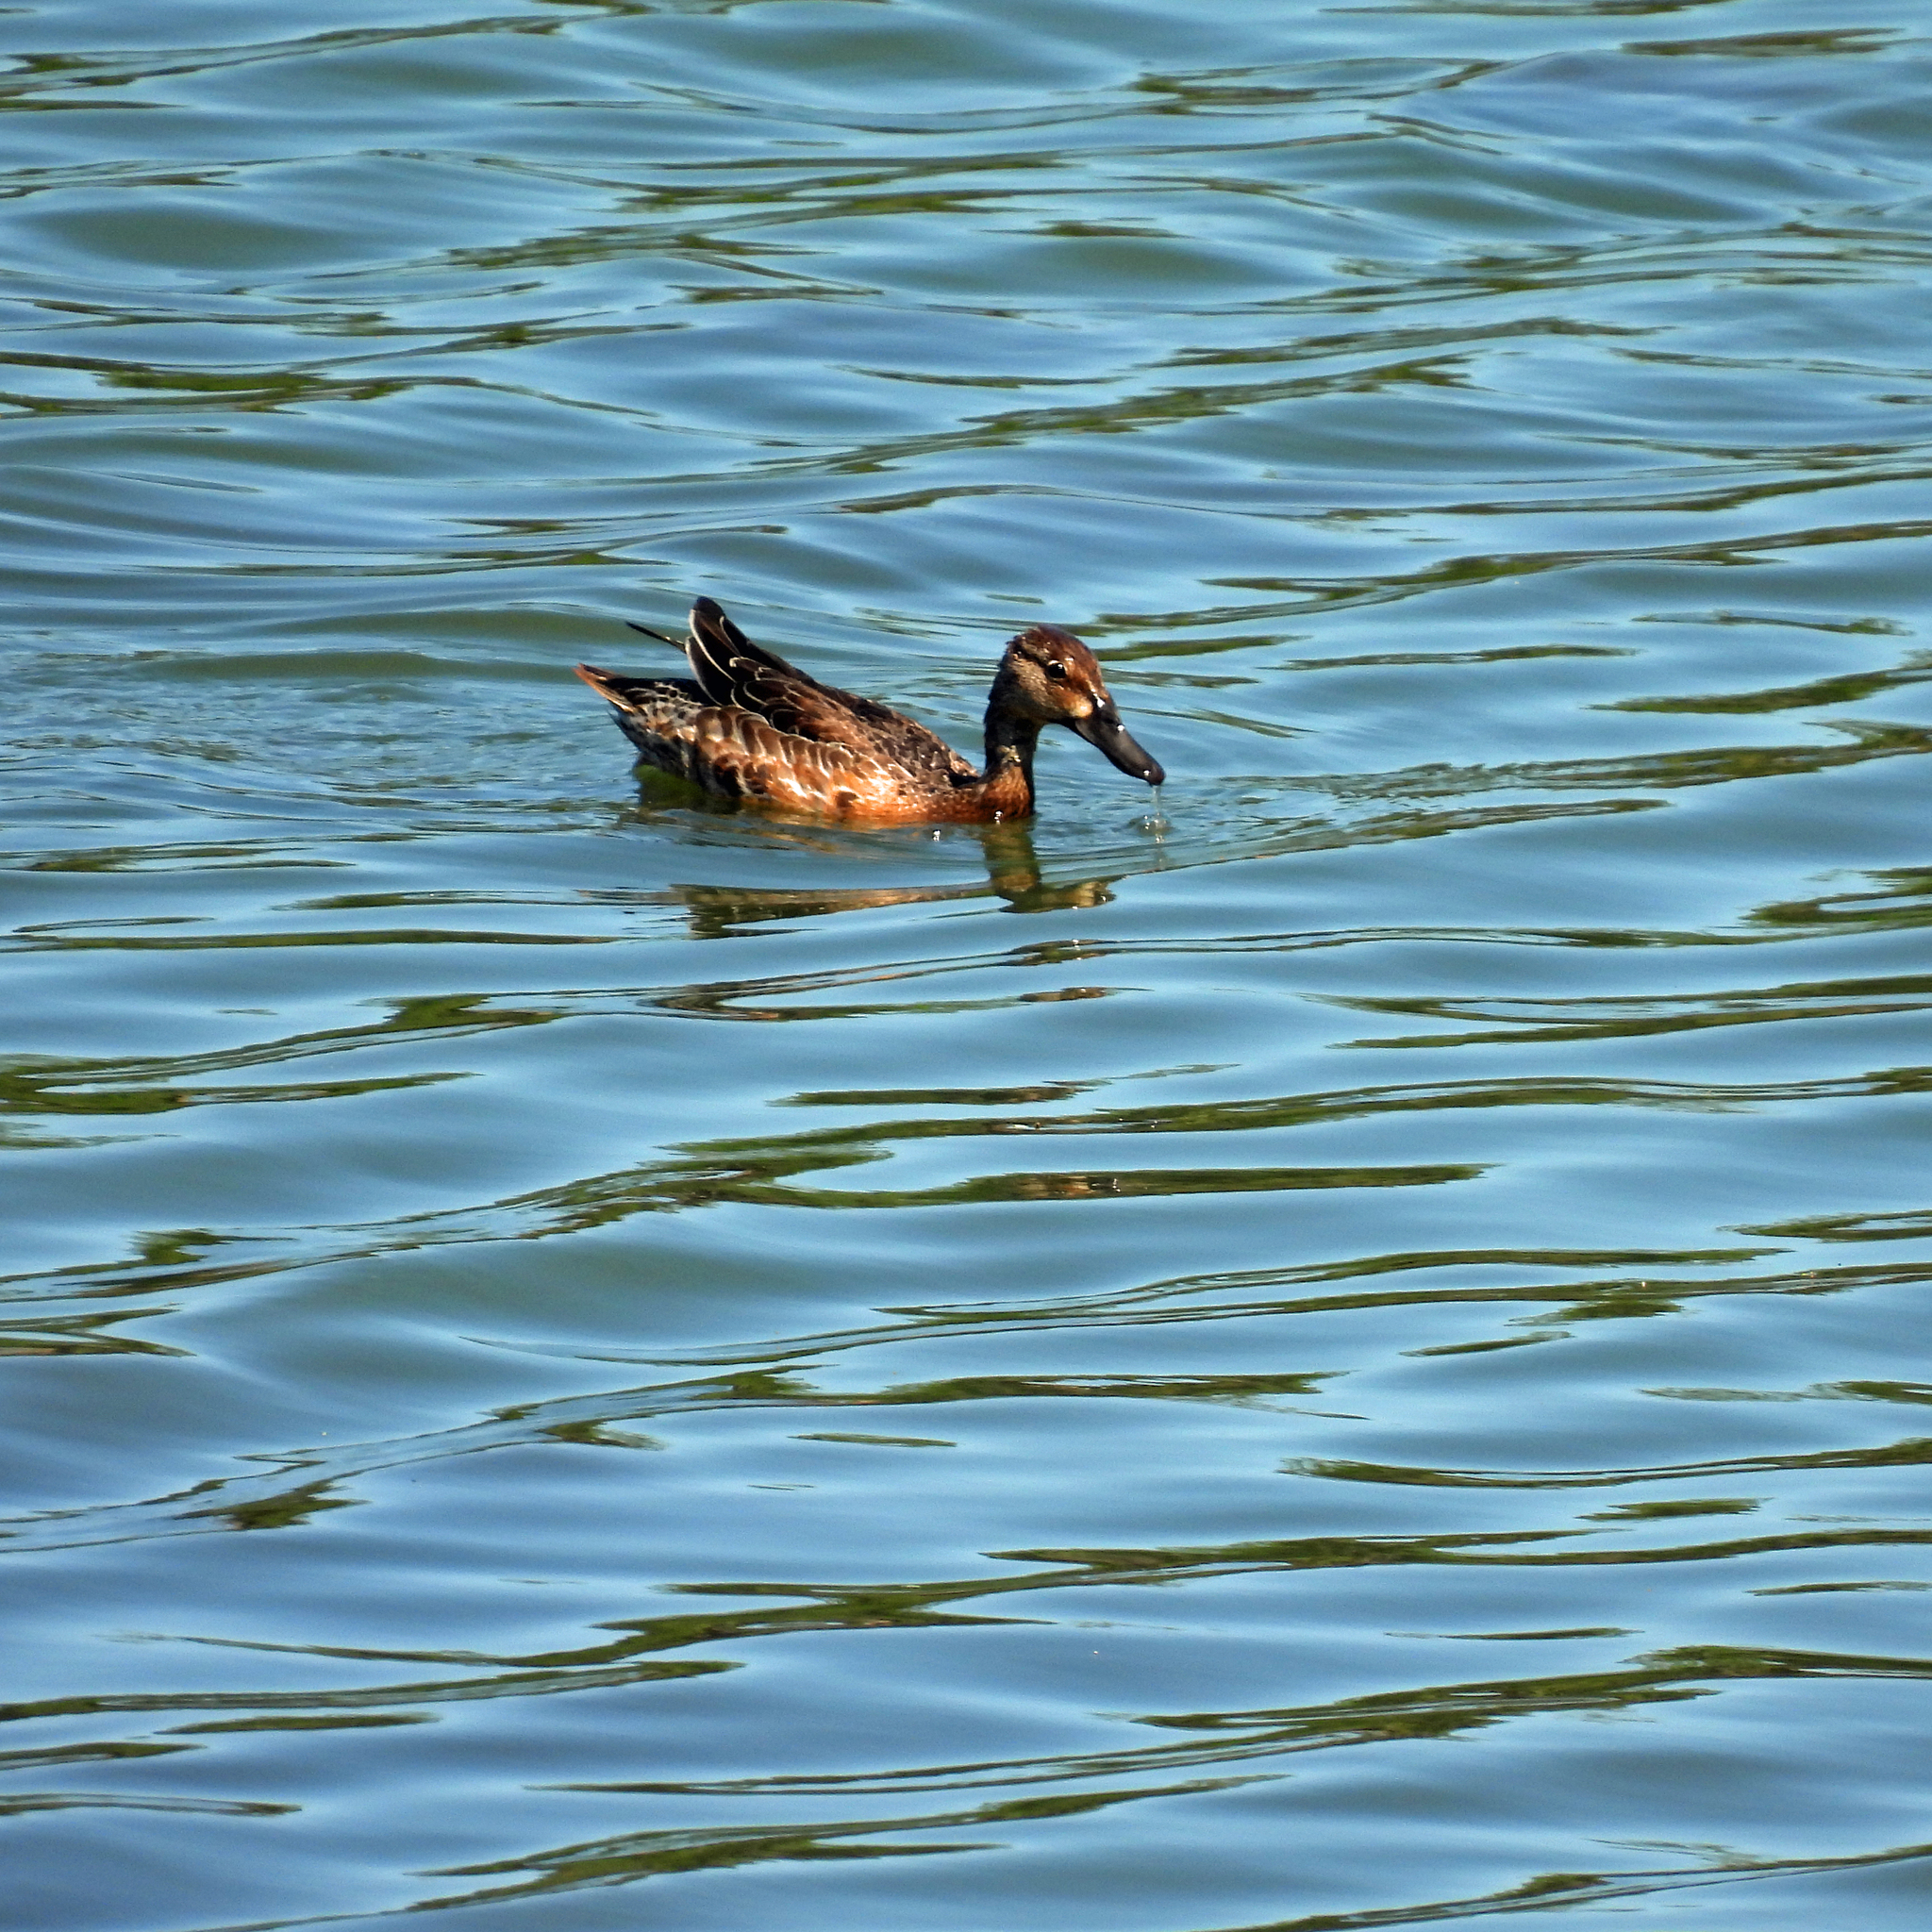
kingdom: Animalia
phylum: Chordata
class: Aves
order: Anseriformes
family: Anatidae
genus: Spatula
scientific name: Spatula discors
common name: Blue-winged teal
